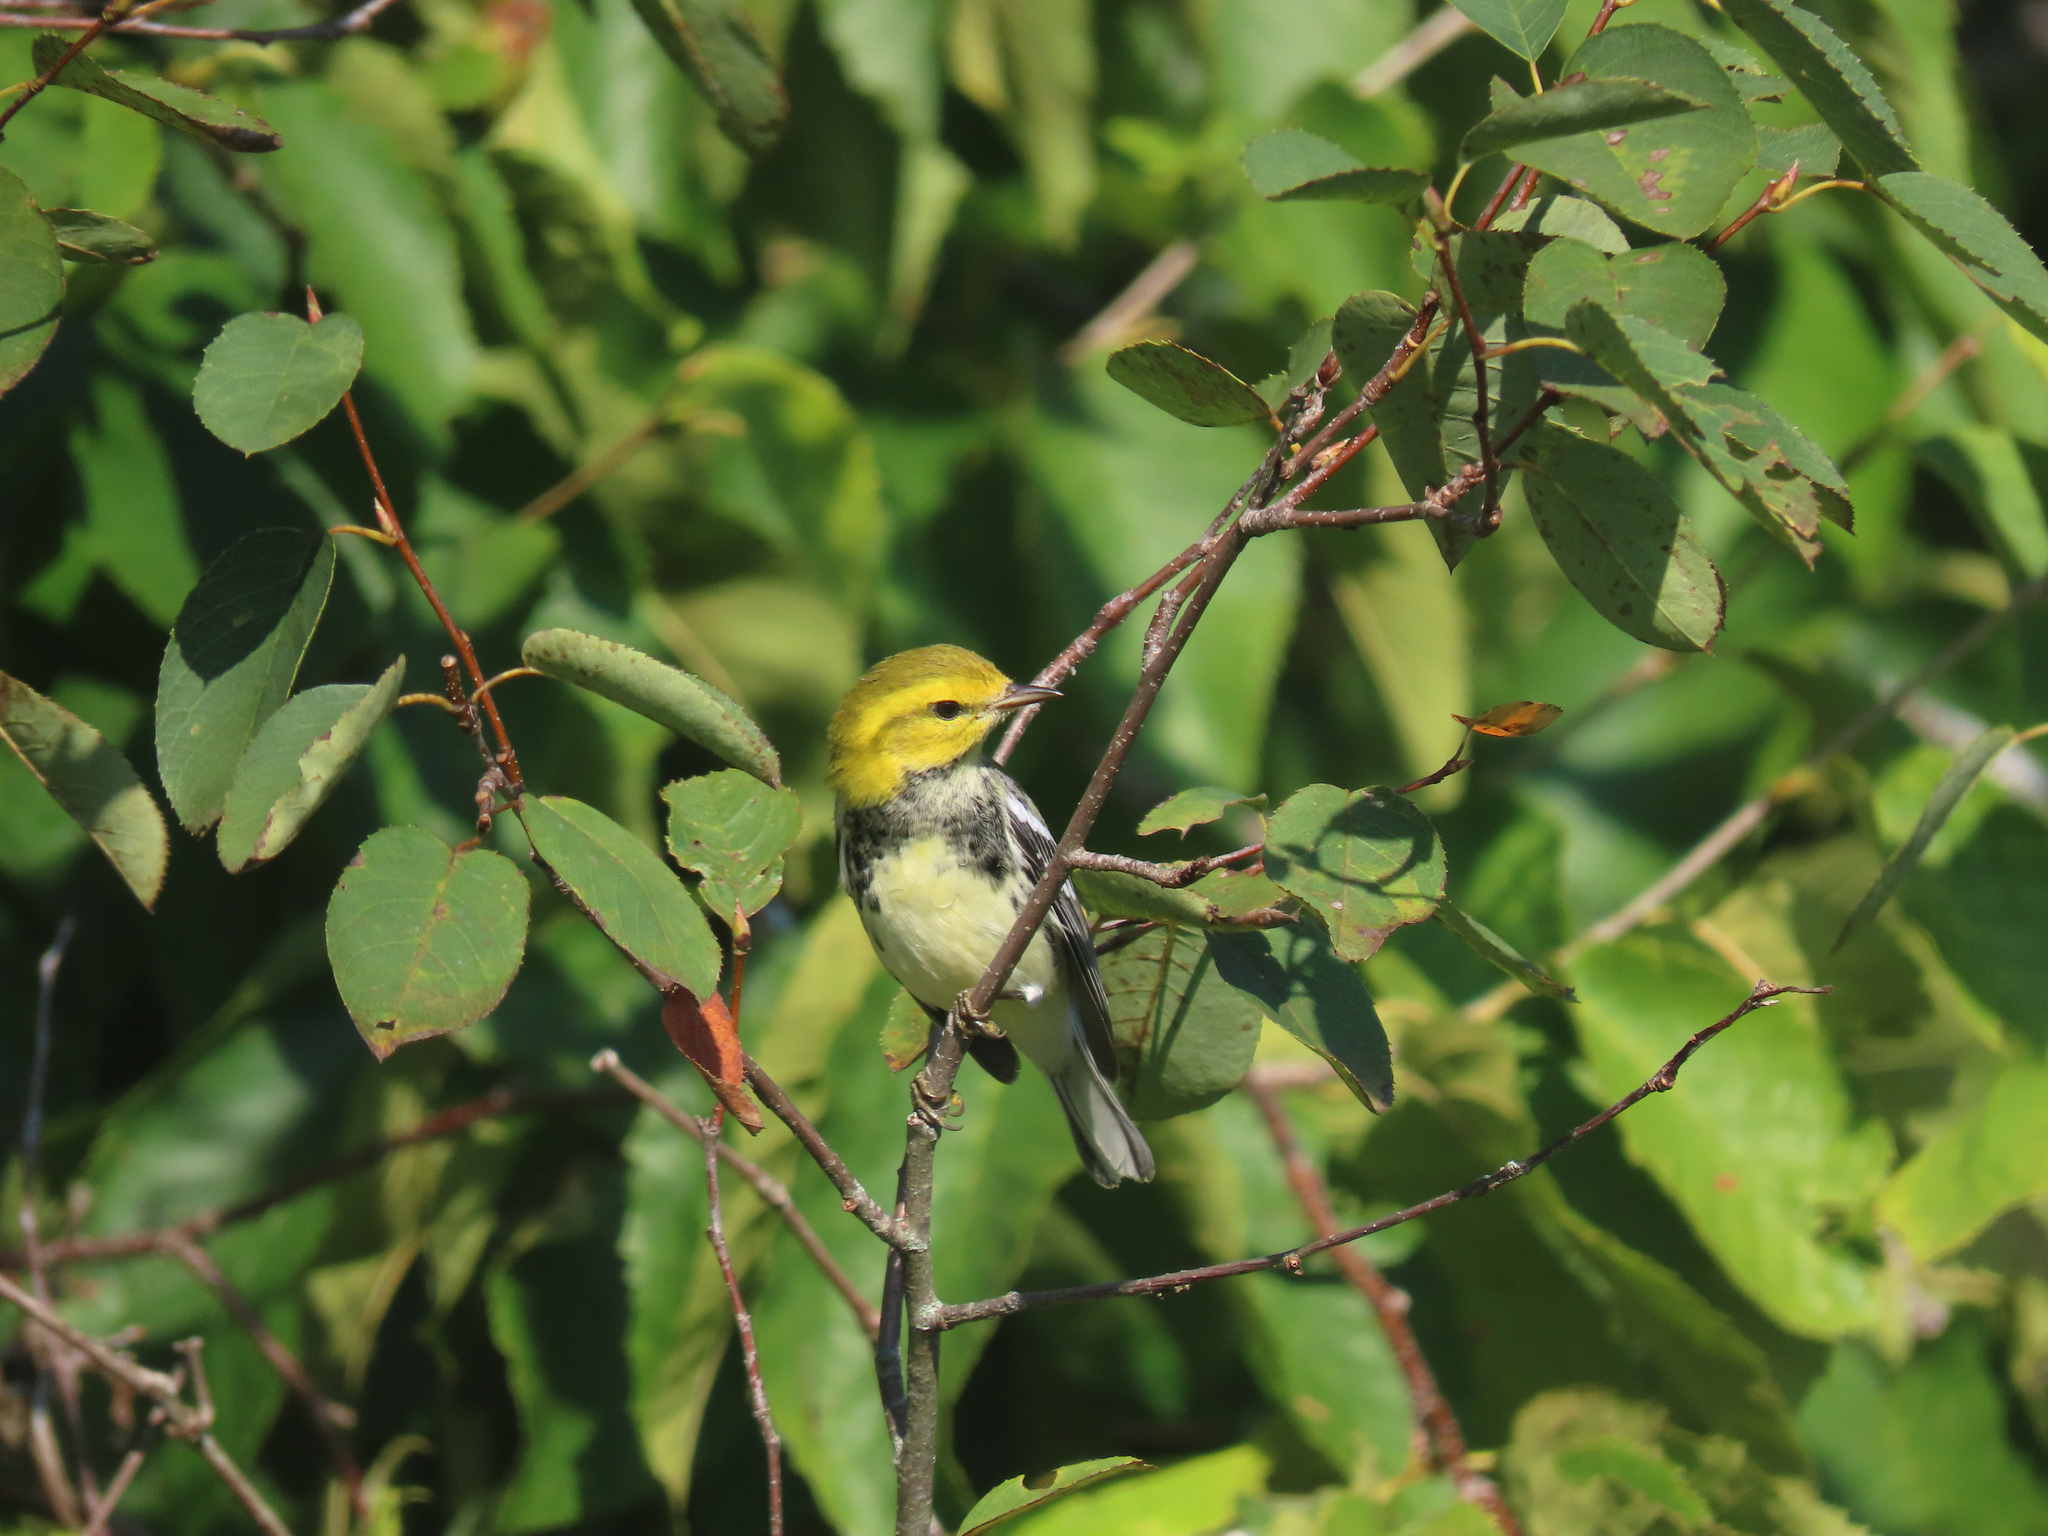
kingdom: Animalia
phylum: Chordata
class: Aves
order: Passeriformes
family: Parulidae
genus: Setophaga
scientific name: Setophaga virens
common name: Black-throated green warbler
